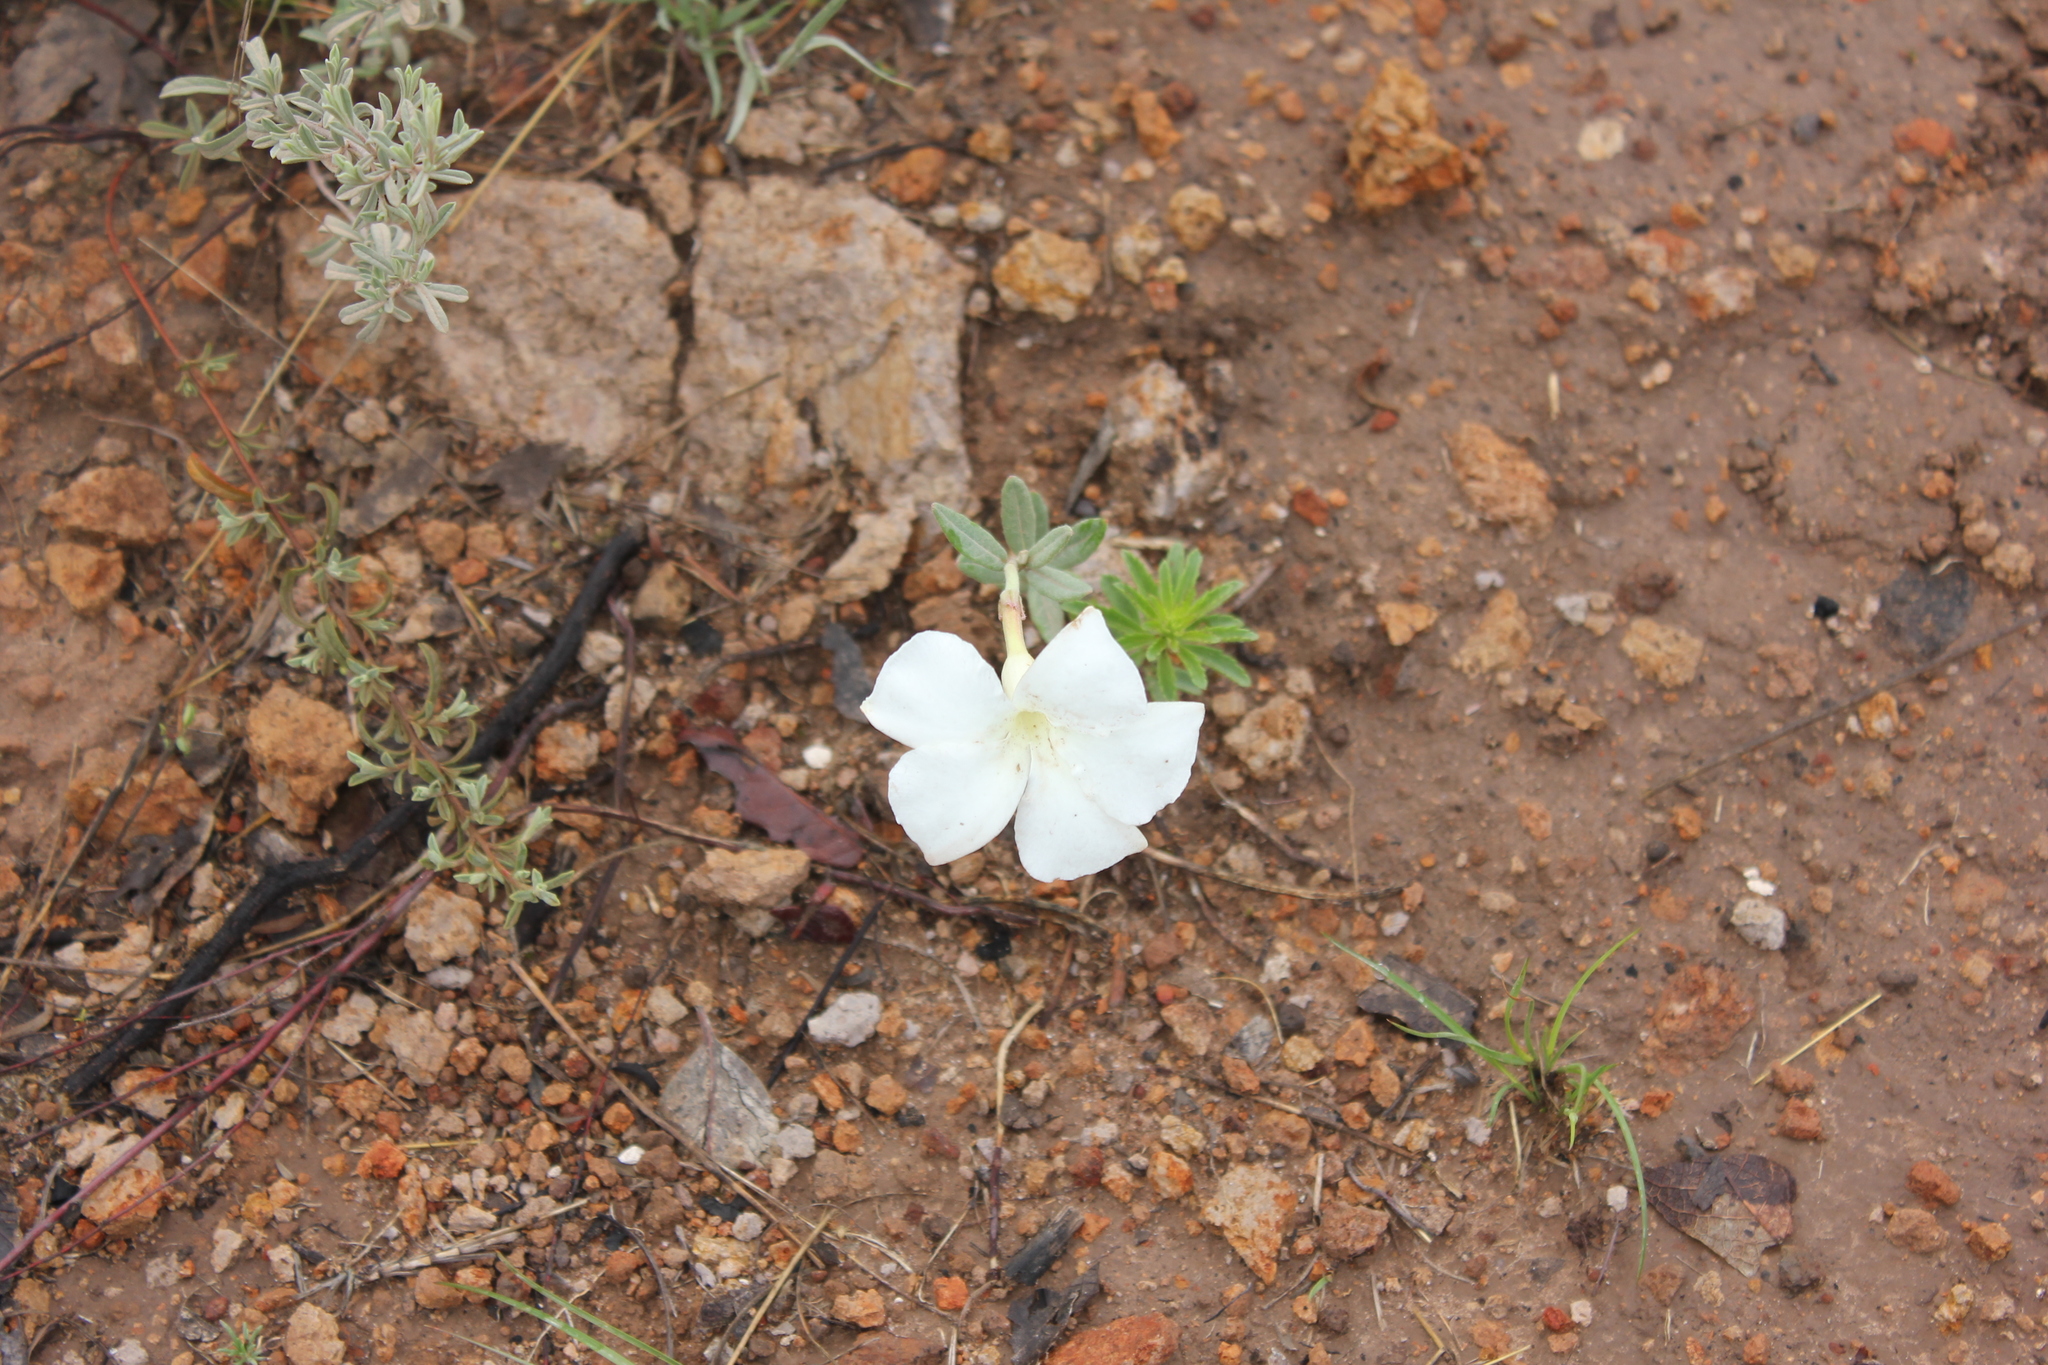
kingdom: Plantae
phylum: Tracheophyta
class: Magnoliopsida
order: Gentianales
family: Apocynaceae
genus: Mandevilla
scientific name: Mandevilla hypoleuca
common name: Davis mountain rocktrumpet
